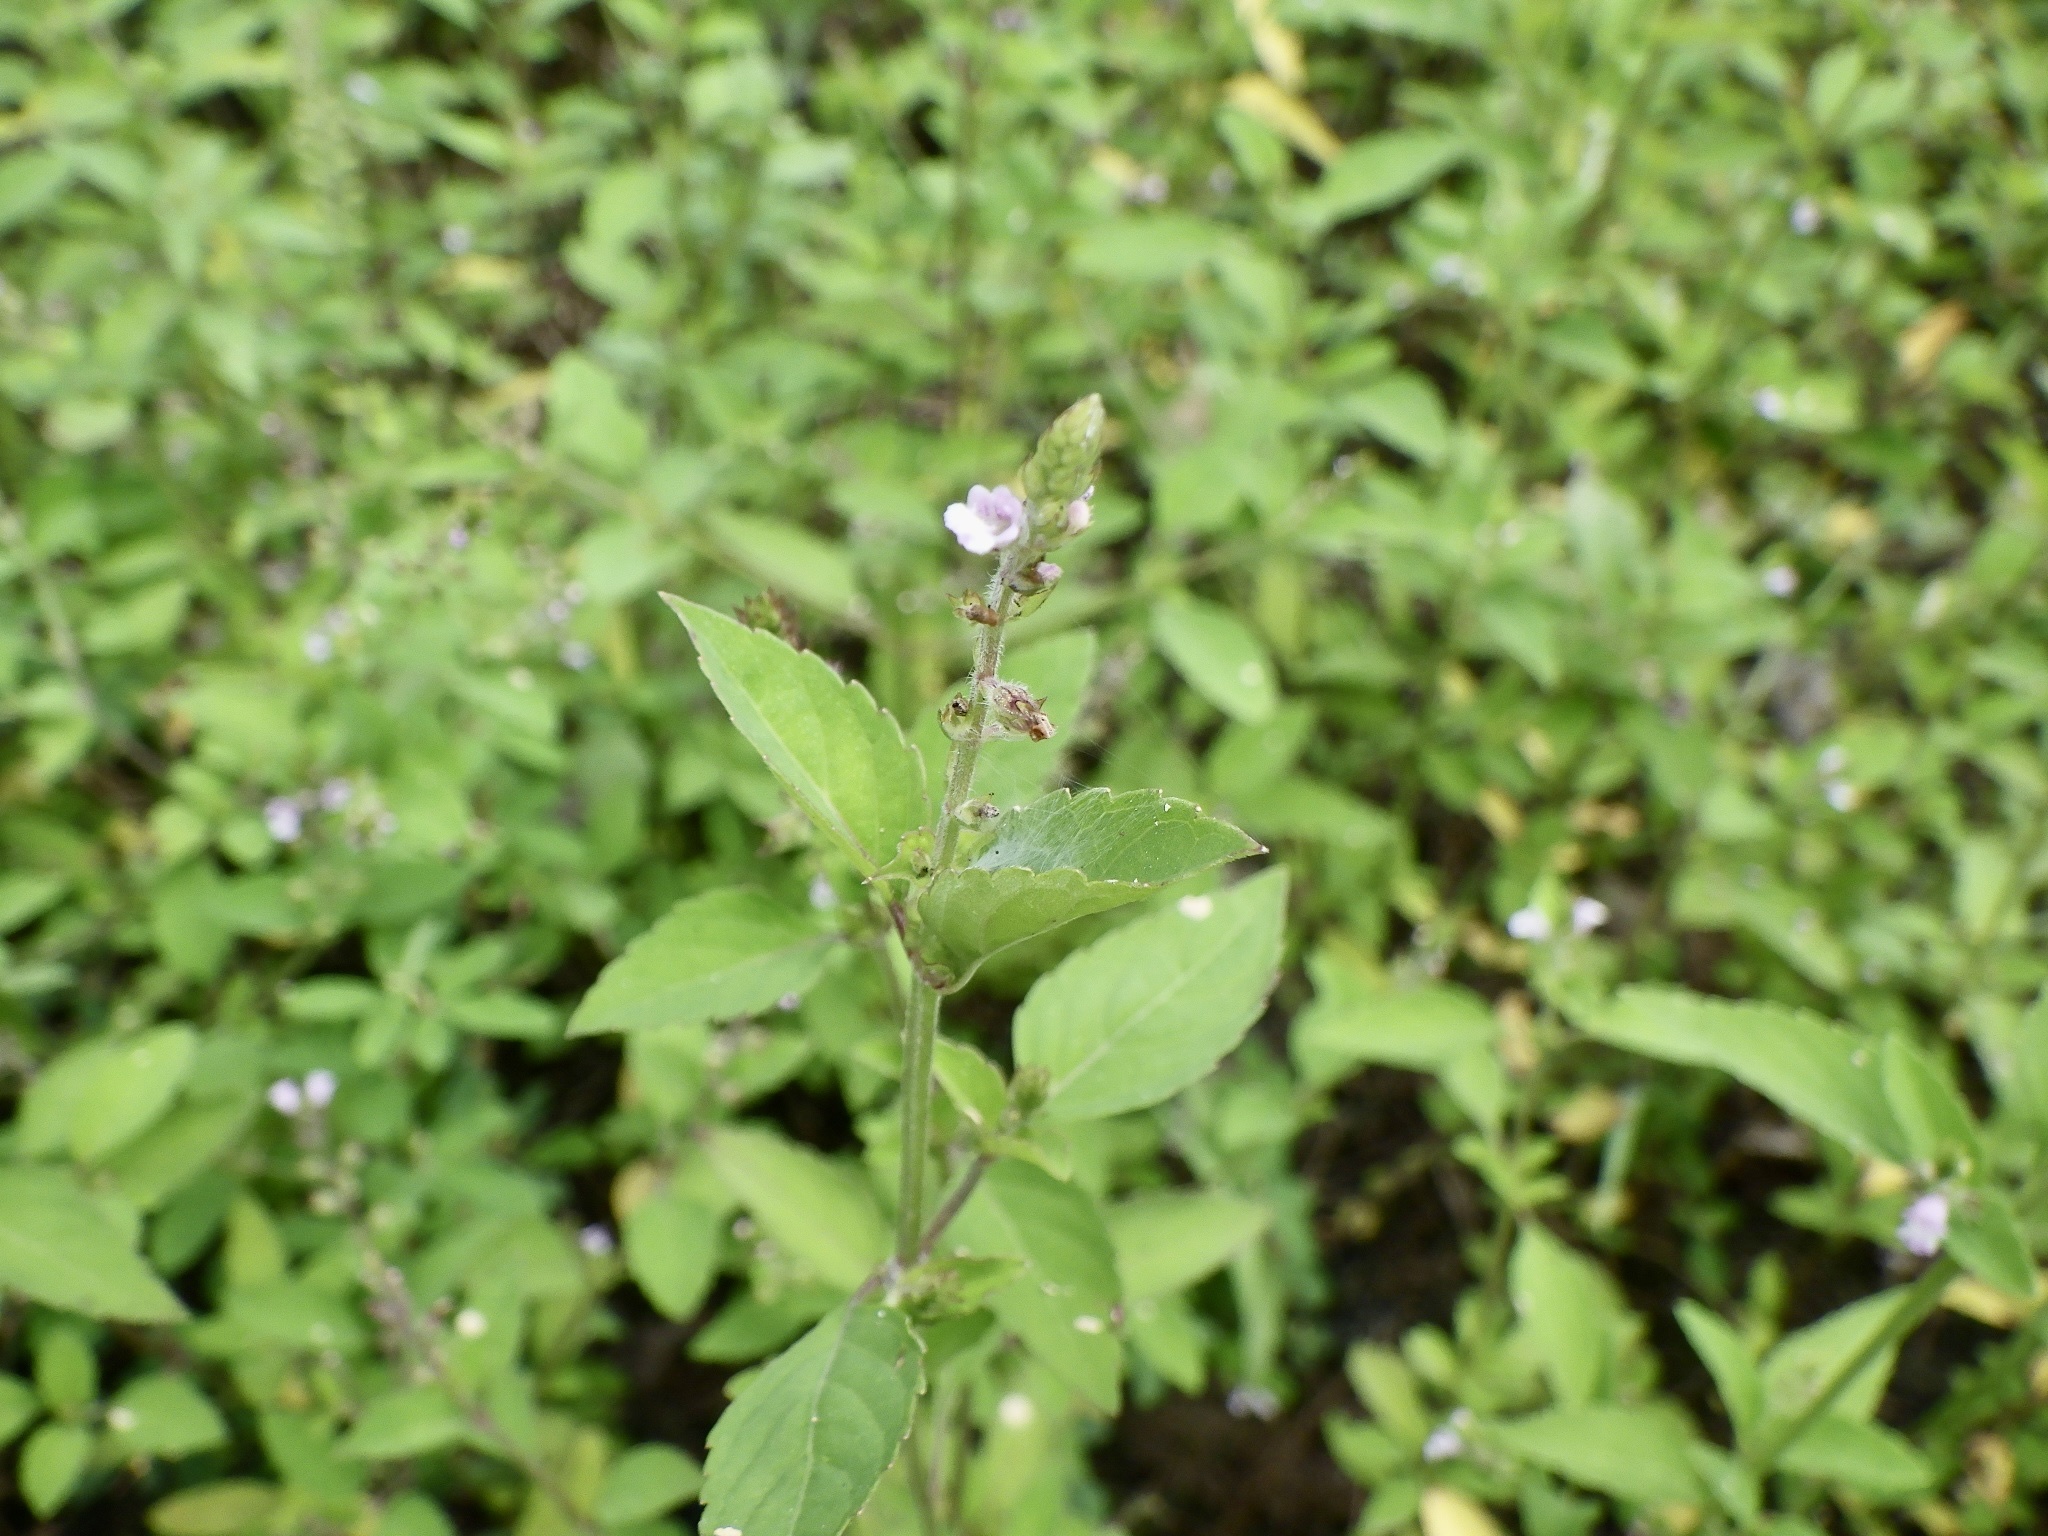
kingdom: Plantae
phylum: Tracheophyta
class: Magnoliopsida
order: Lamiales
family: Lamiaceae
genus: Mosla
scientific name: Mosla scabra
